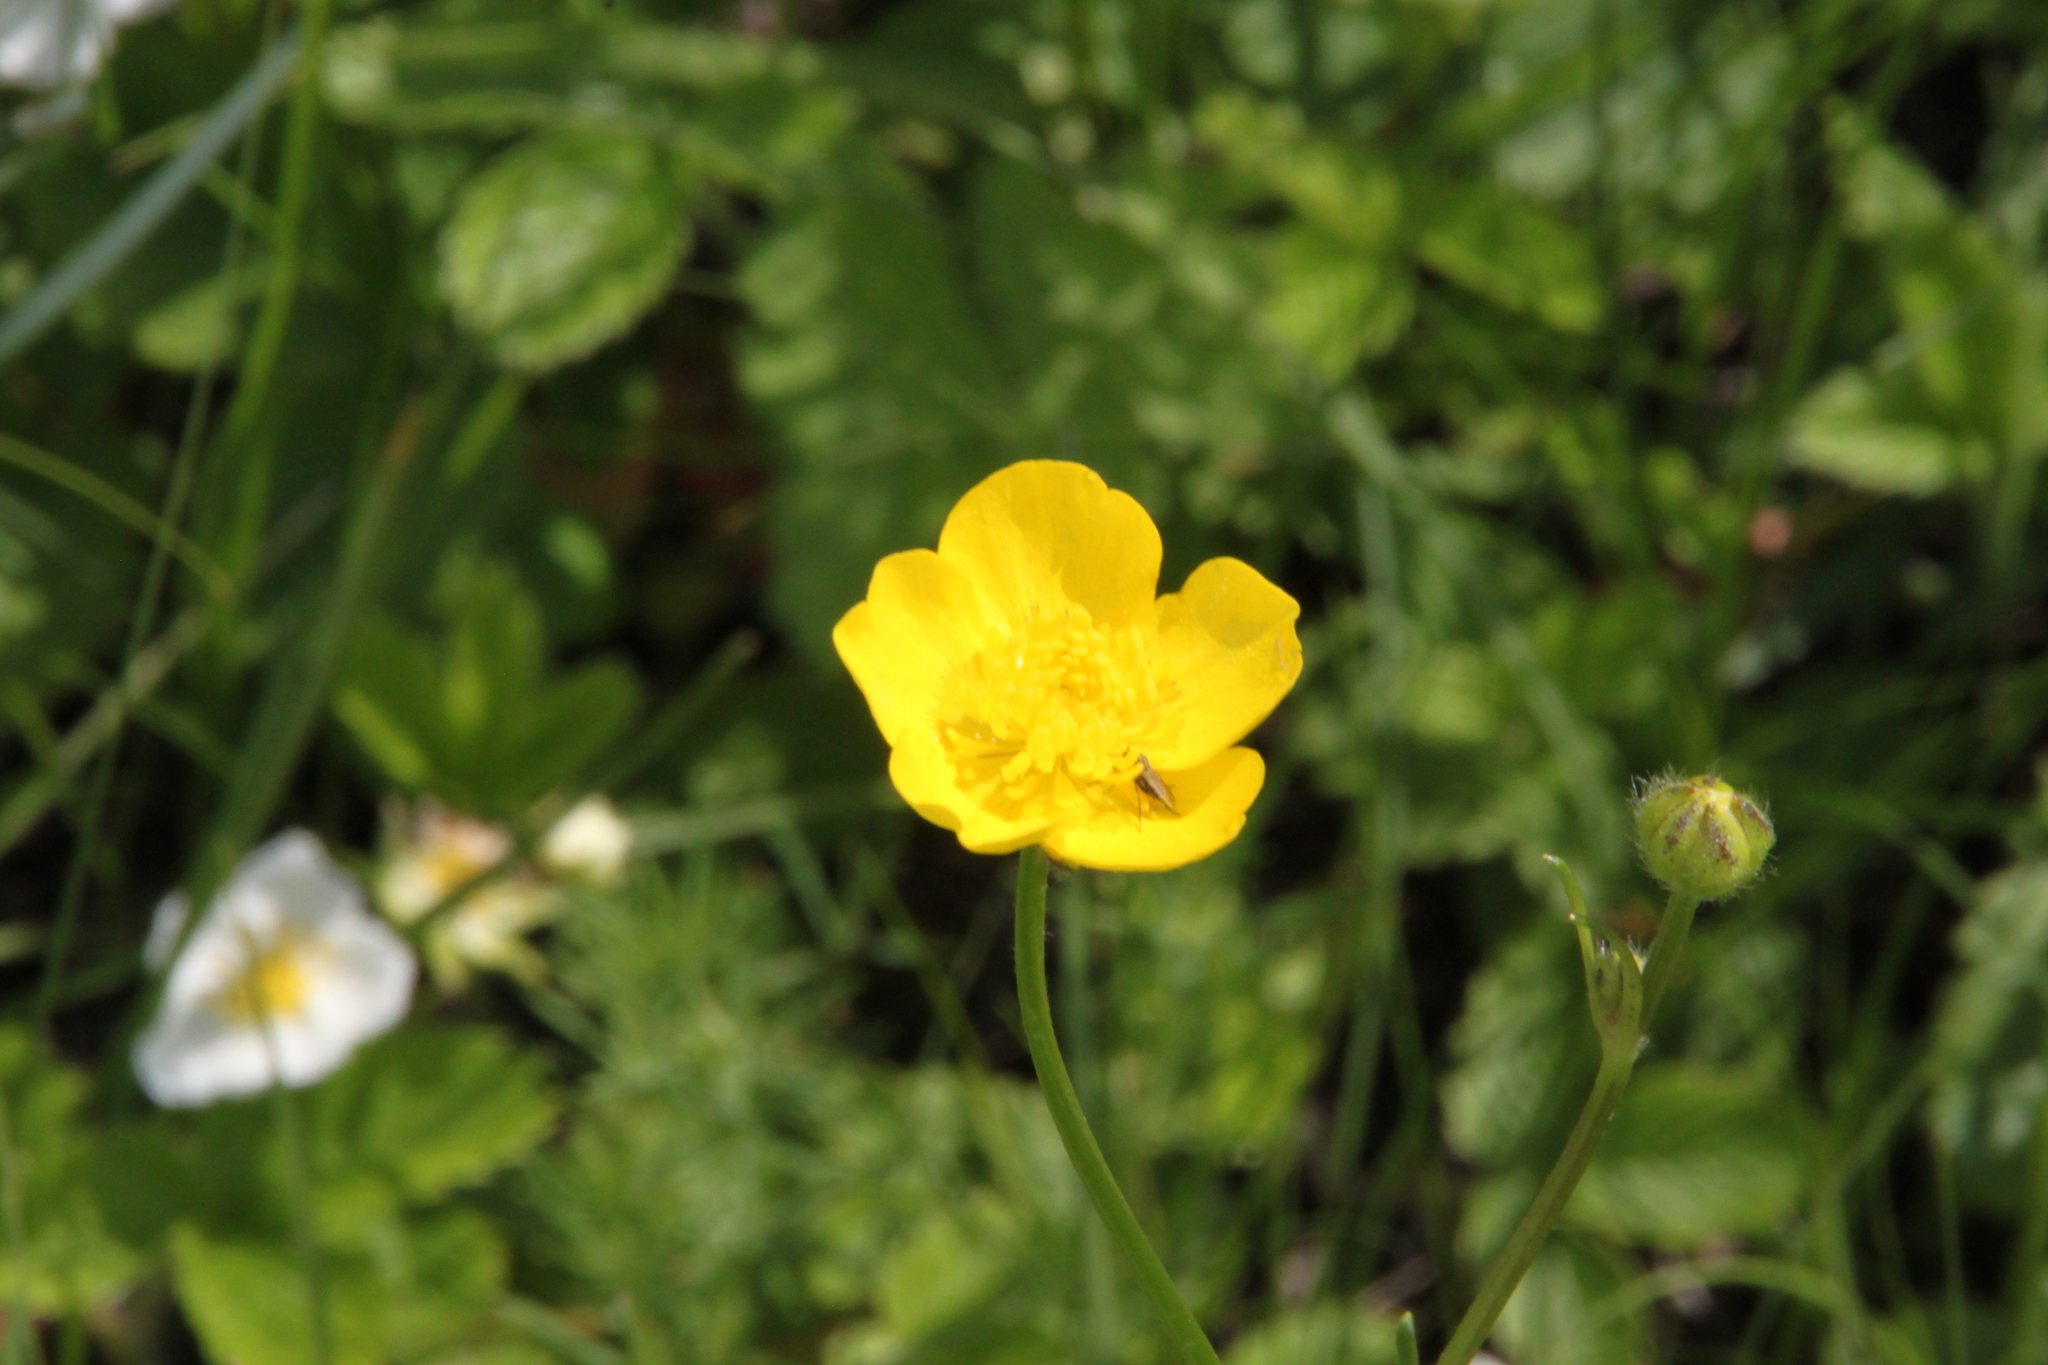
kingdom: Plantae
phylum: Tracheophyta
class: Magnoliopsida
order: Ranunculales
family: Ranunculaceae
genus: Ranunculus
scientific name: Ranunculus polyanthemos
